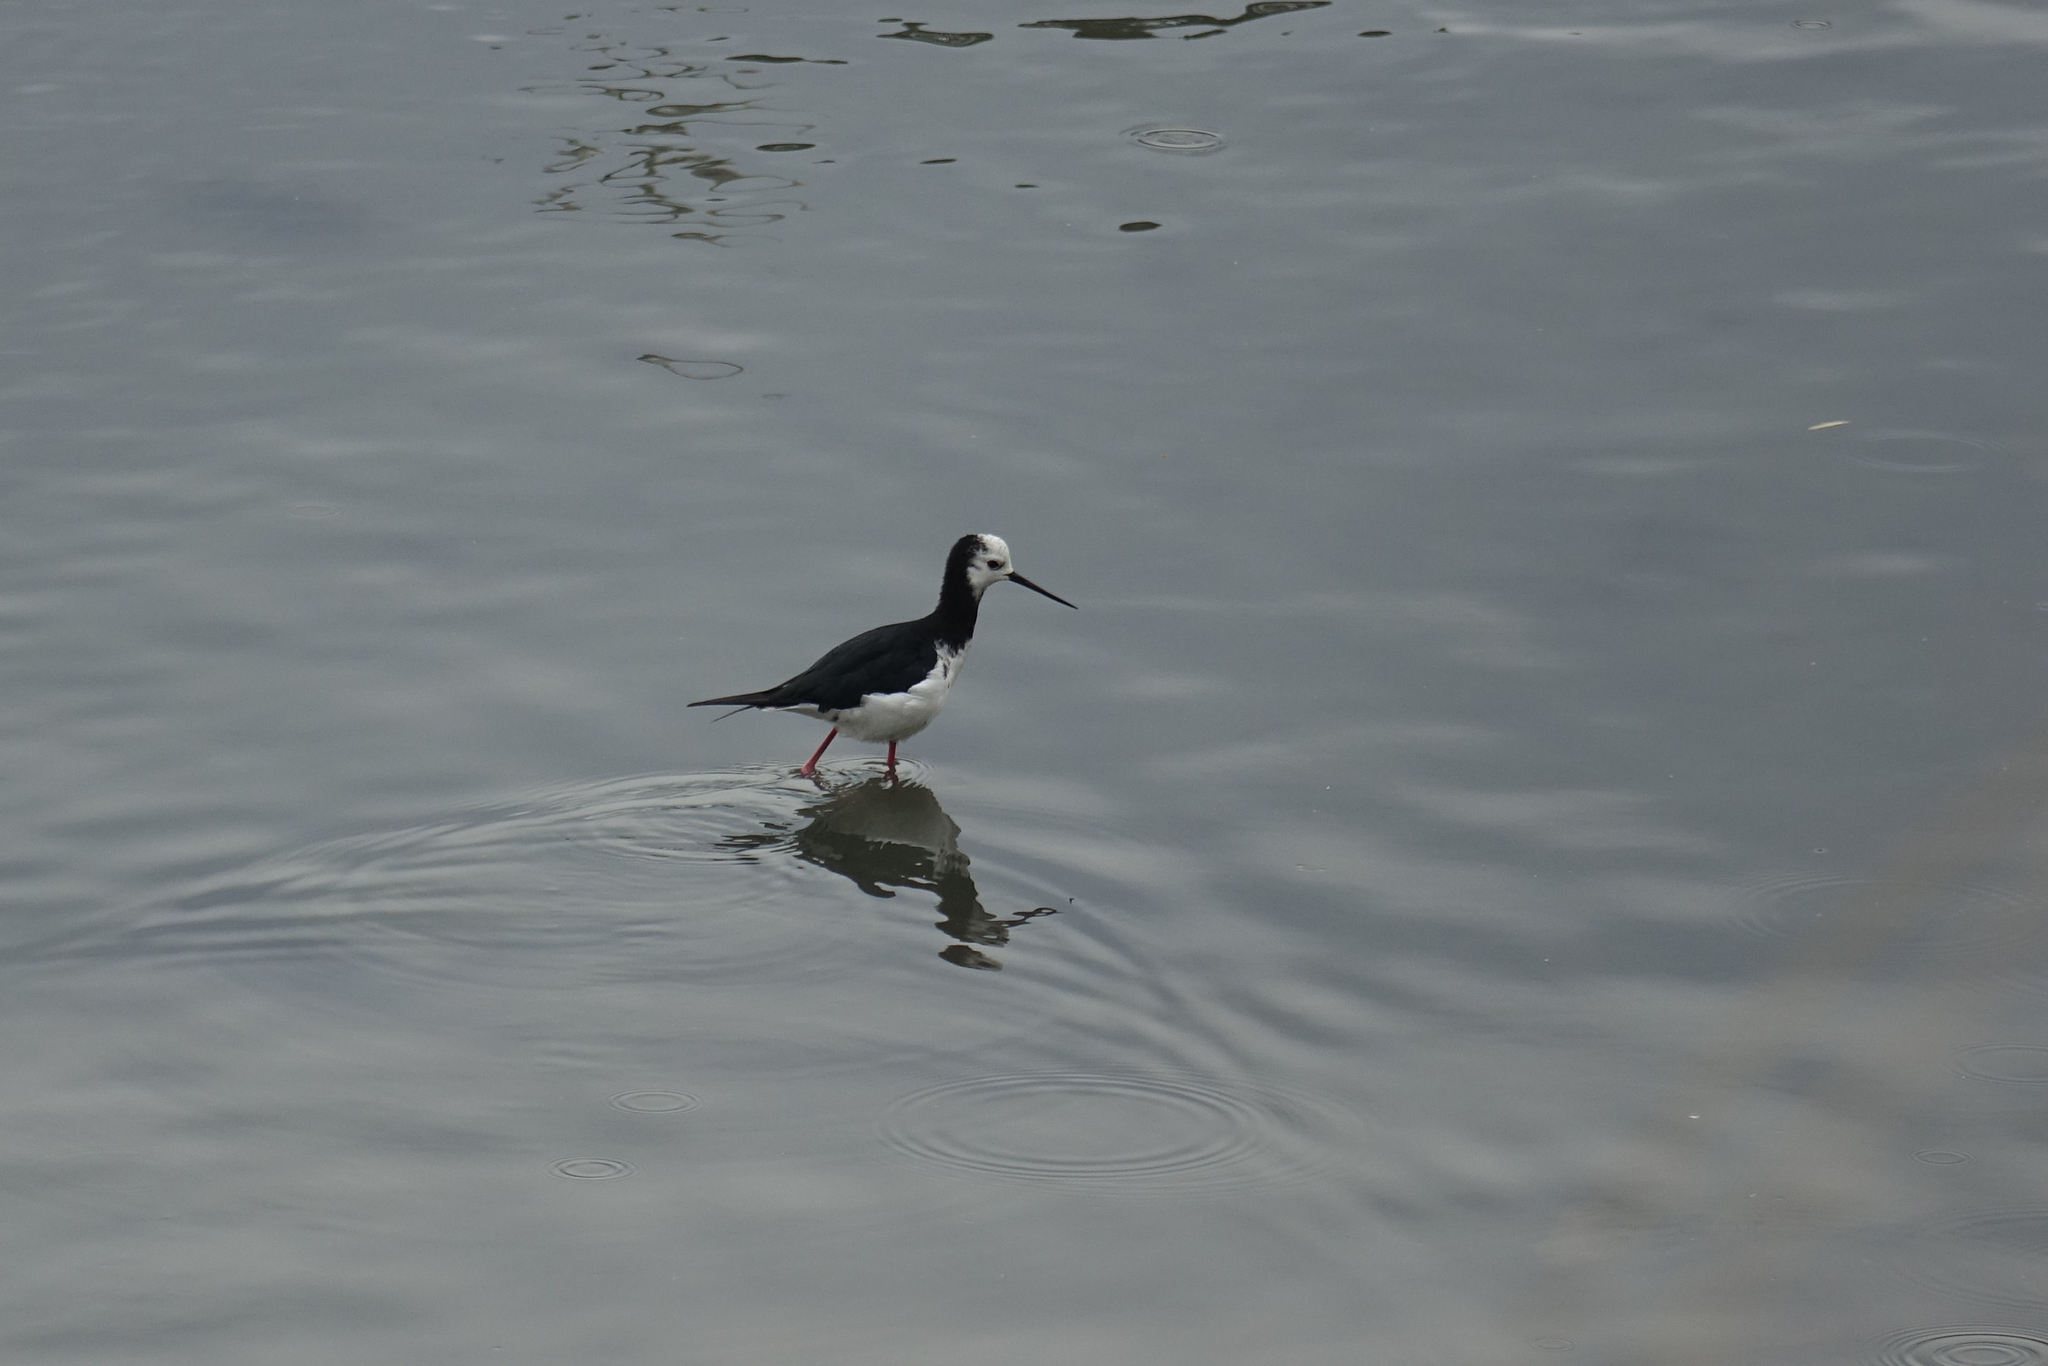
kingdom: Animalia
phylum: Chordata
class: Aves
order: Charadriiformes
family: Recurvirostridae
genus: Himantopus
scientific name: Himantopus leucocephalus
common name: White-headed stilt
